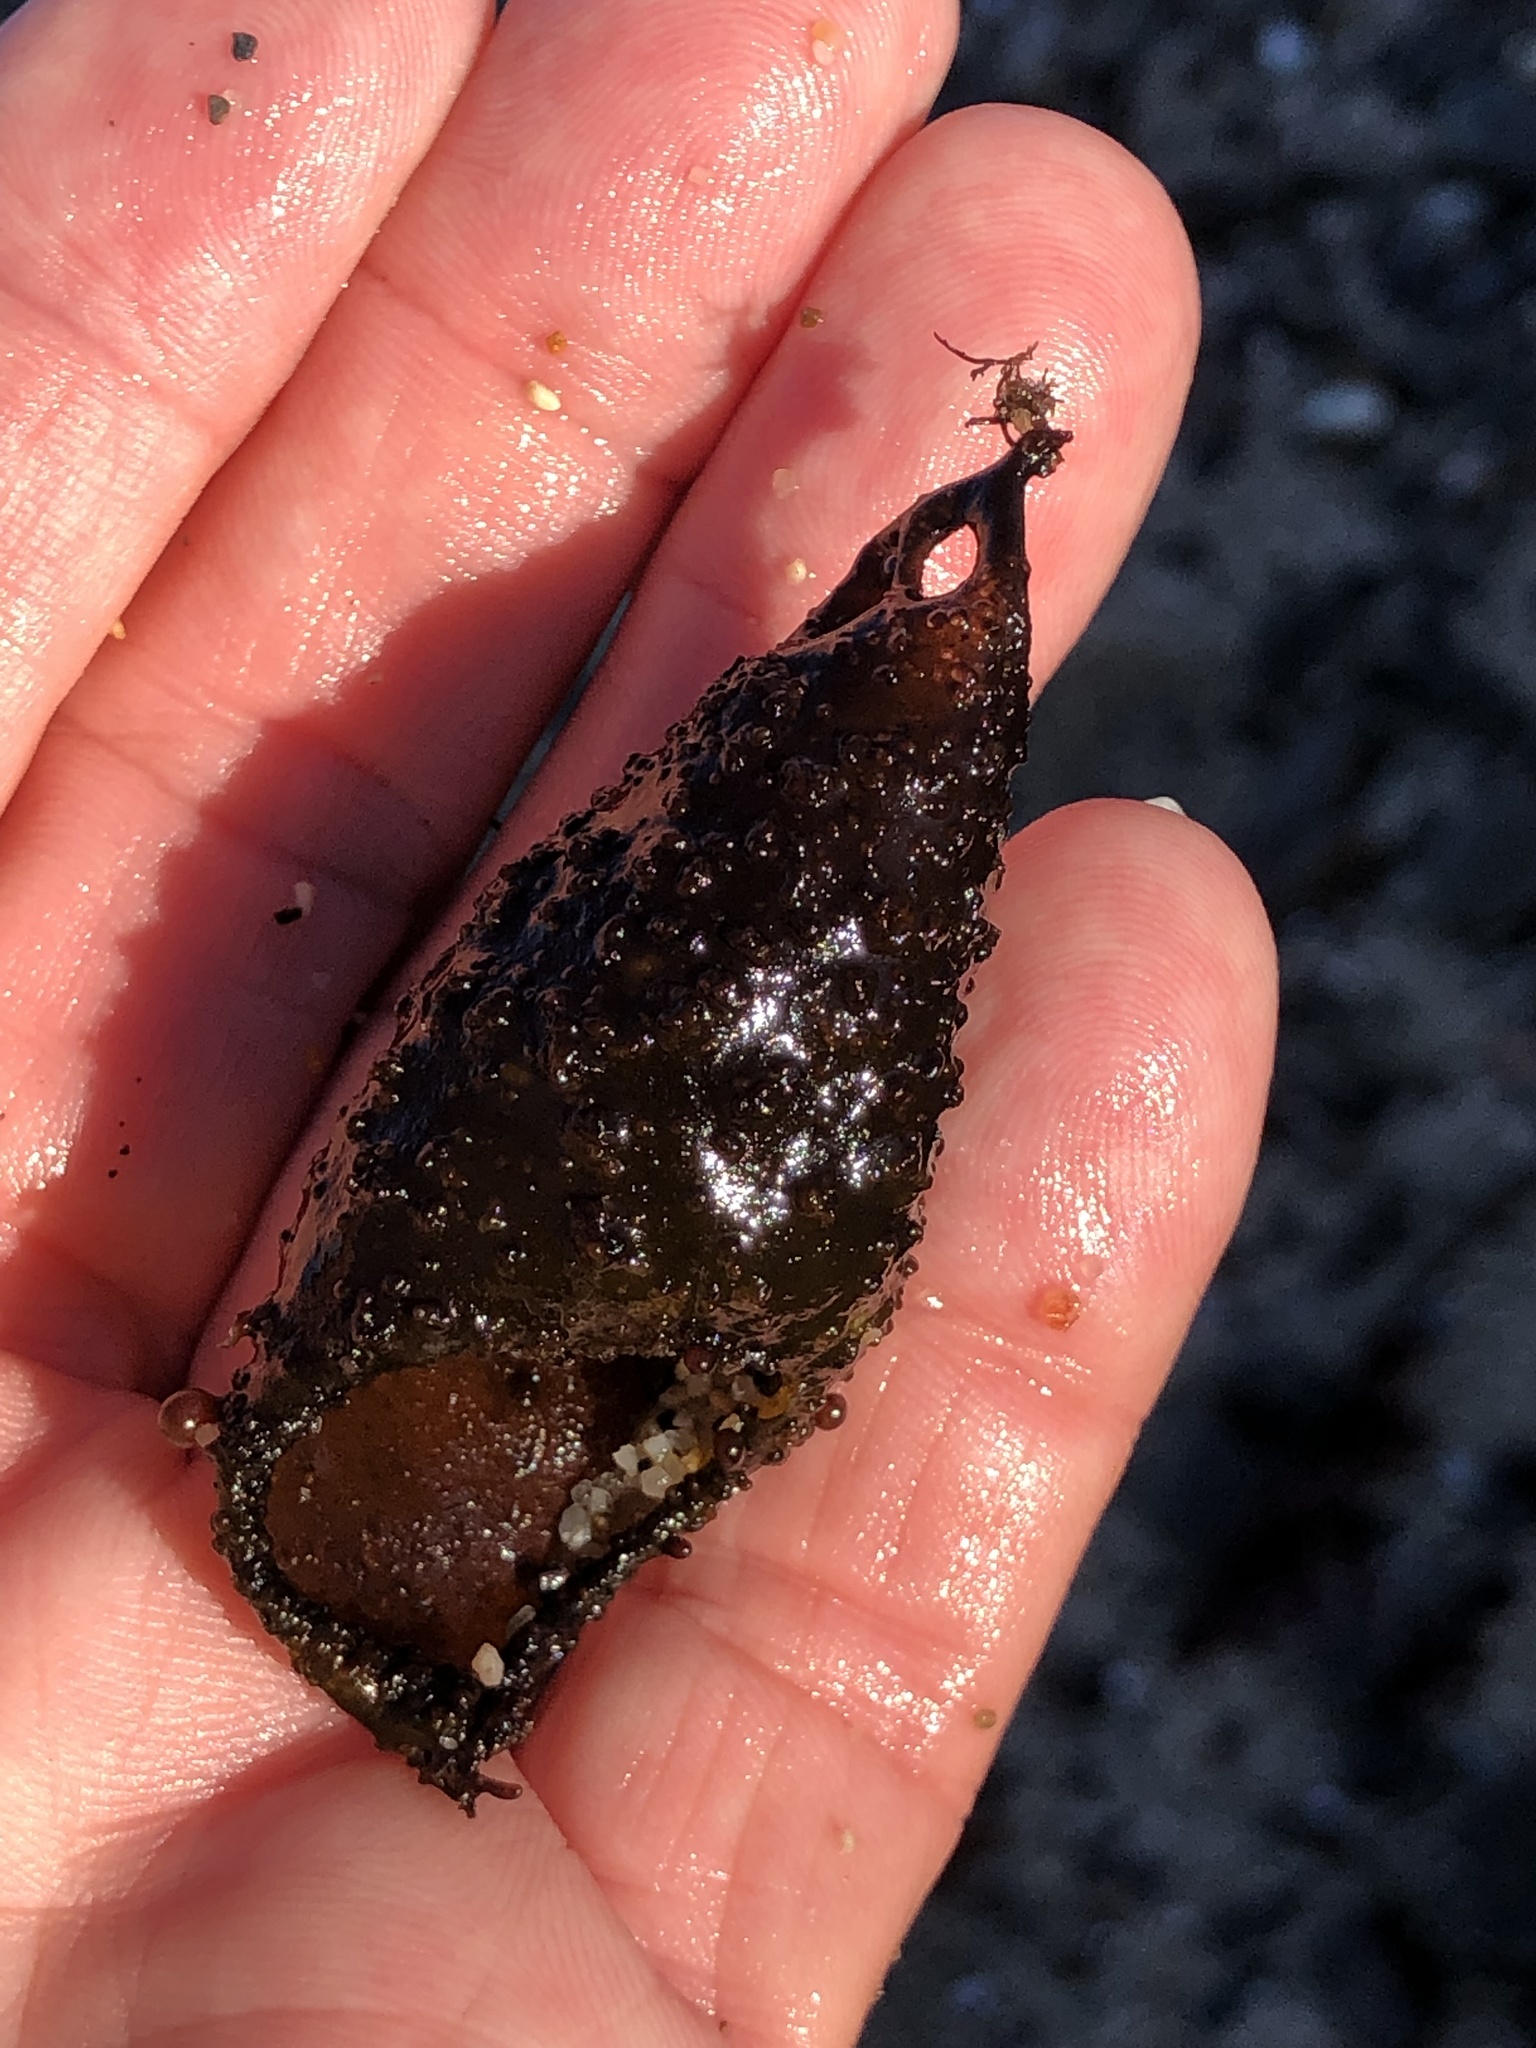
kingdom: Plantae
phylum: Rhodophyta
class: Florideophyceae
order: Palmariales
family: Palmariaceae
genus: Halosaccion
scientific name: Halosaccion glandiforme
